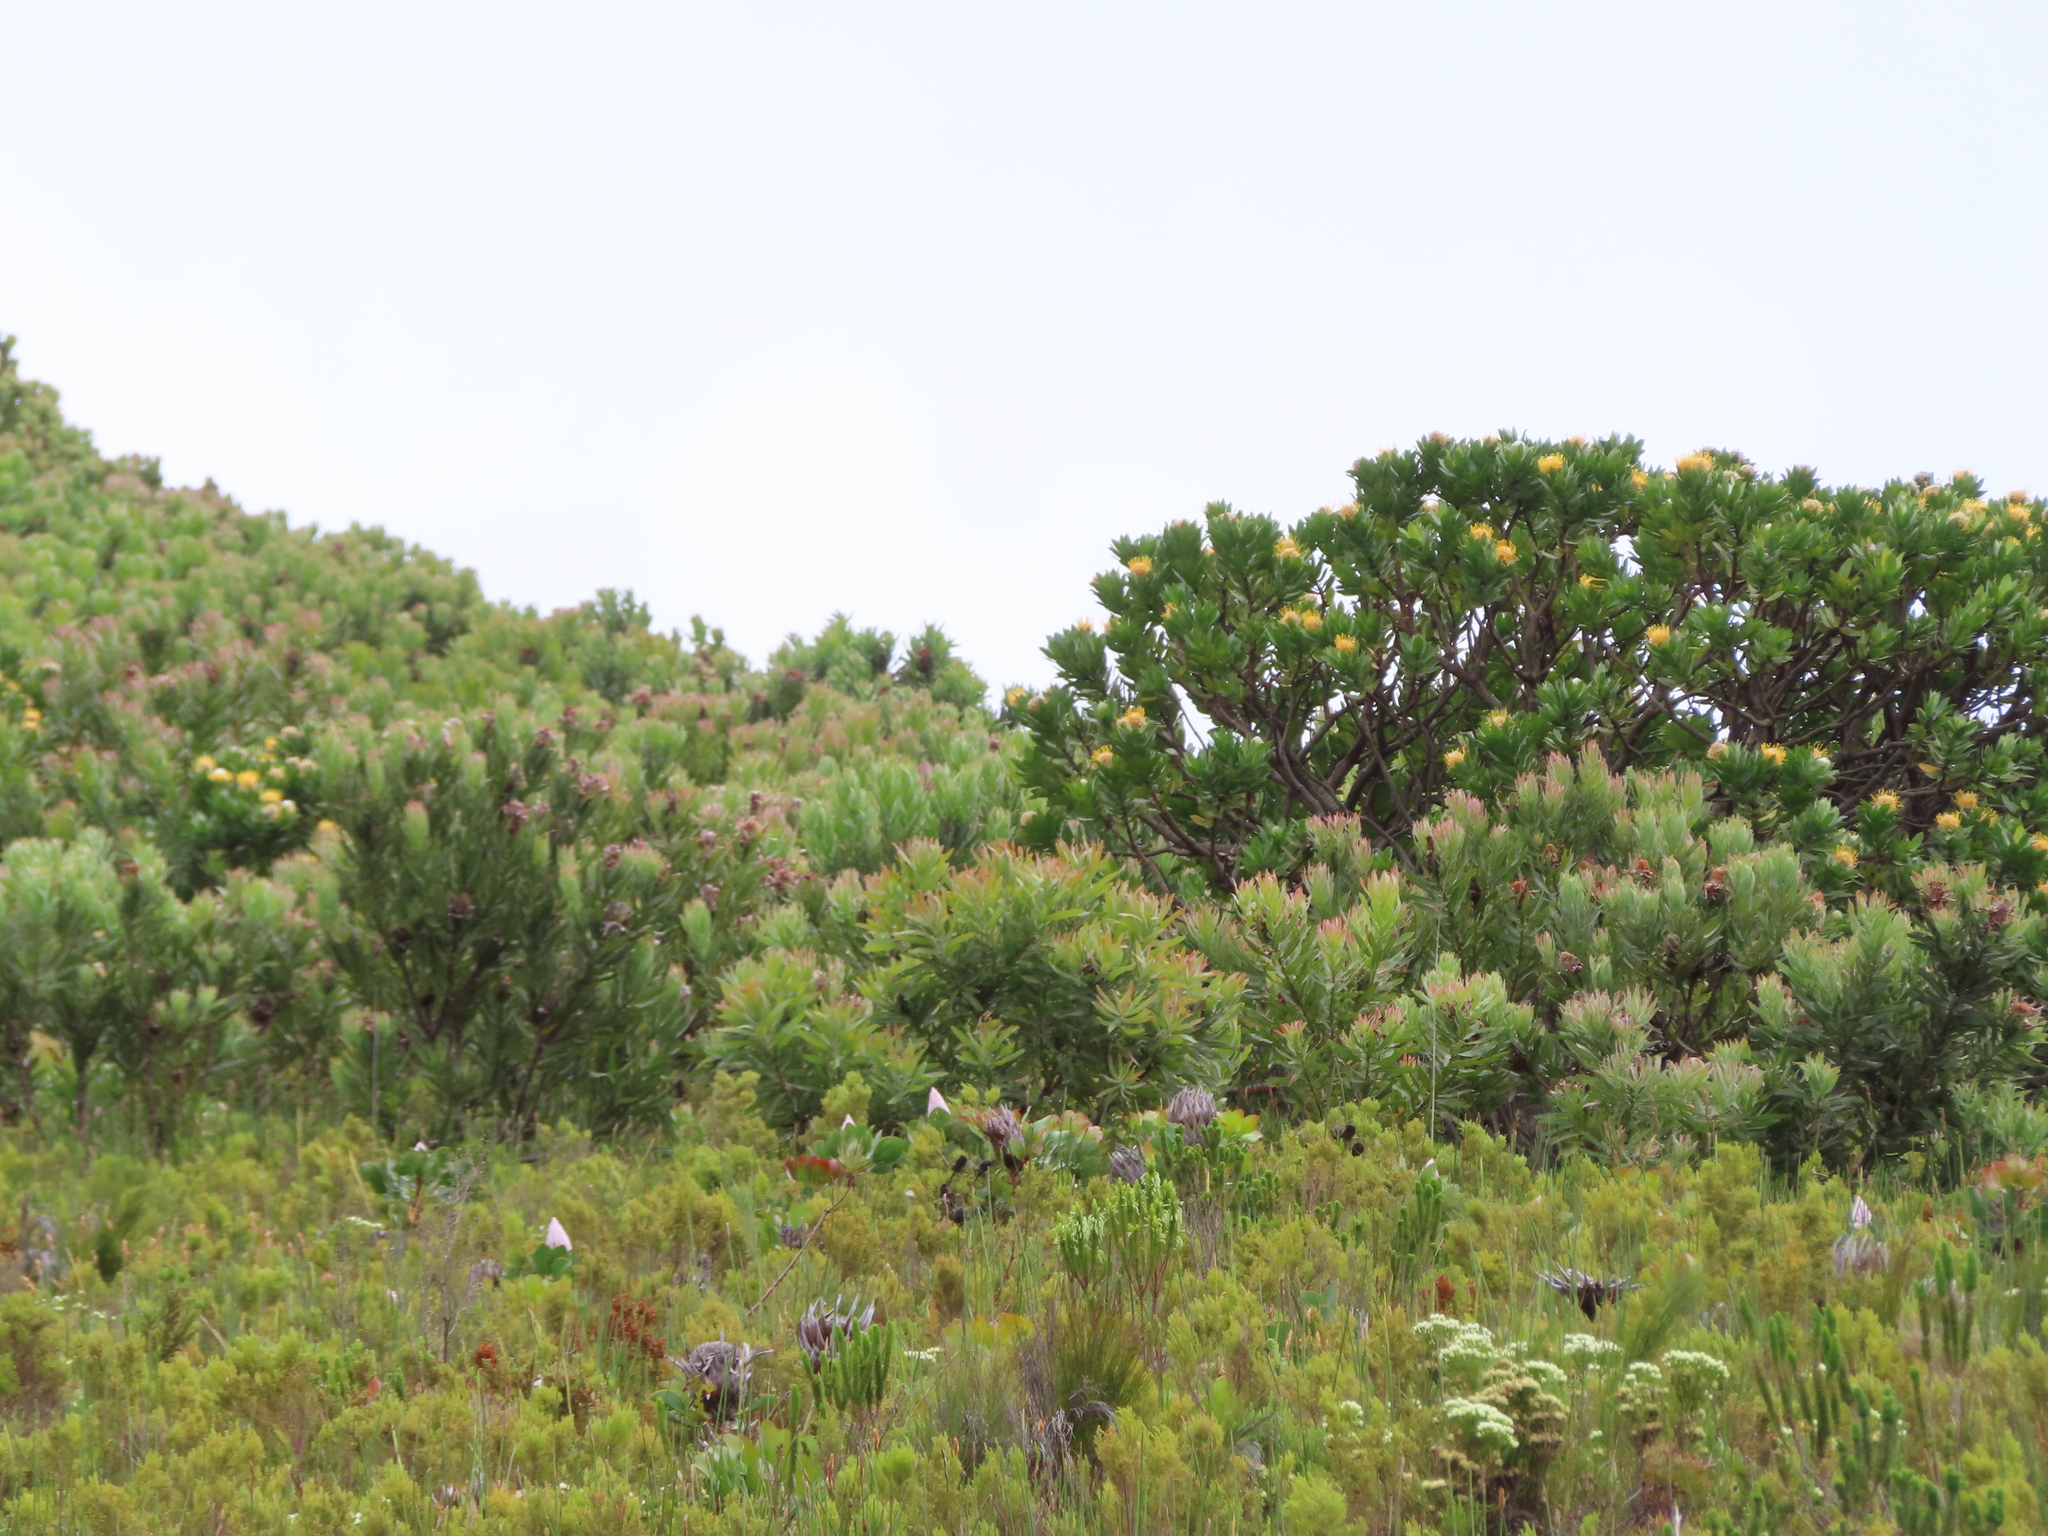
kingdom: Plantae
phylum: Tracheophyta
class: Magnoliopsida
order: Proteales
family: Proteaceae
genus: Leucospermum
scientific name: Leucospermum conocarpodendron
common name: Tree pincushion
